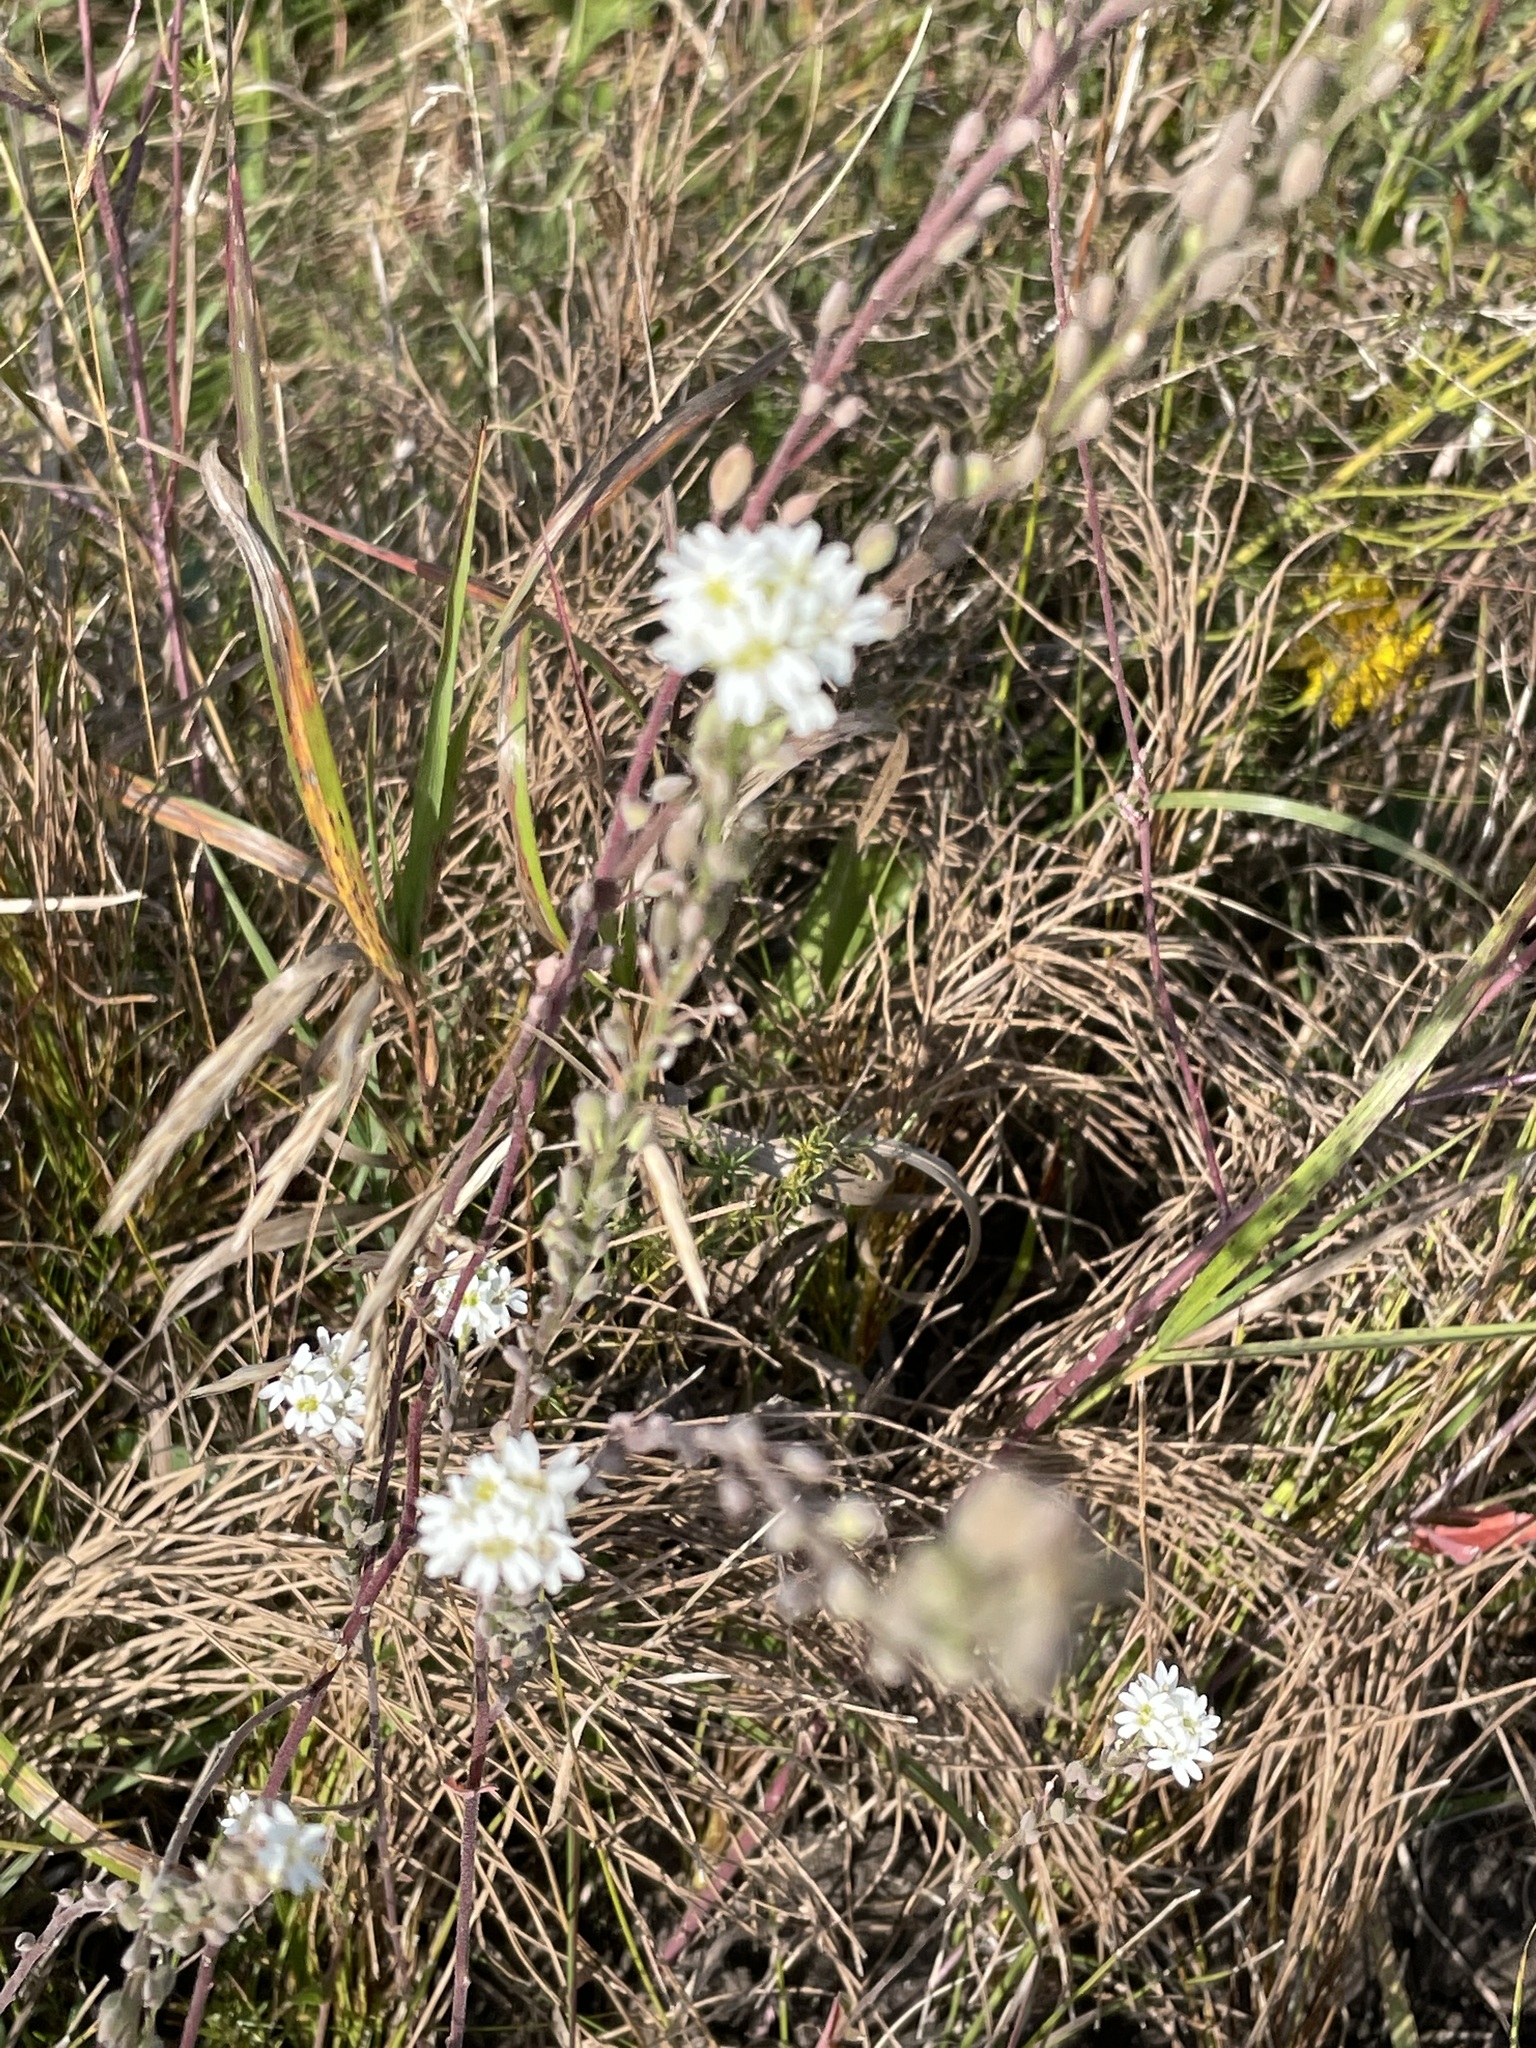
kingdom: Plantae
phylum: Tracheophyta
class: Magnoliopsida
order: Brassicales
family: Brassicaceae
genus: Berteroa
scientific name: Berteroa incana
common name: Hoary alison
